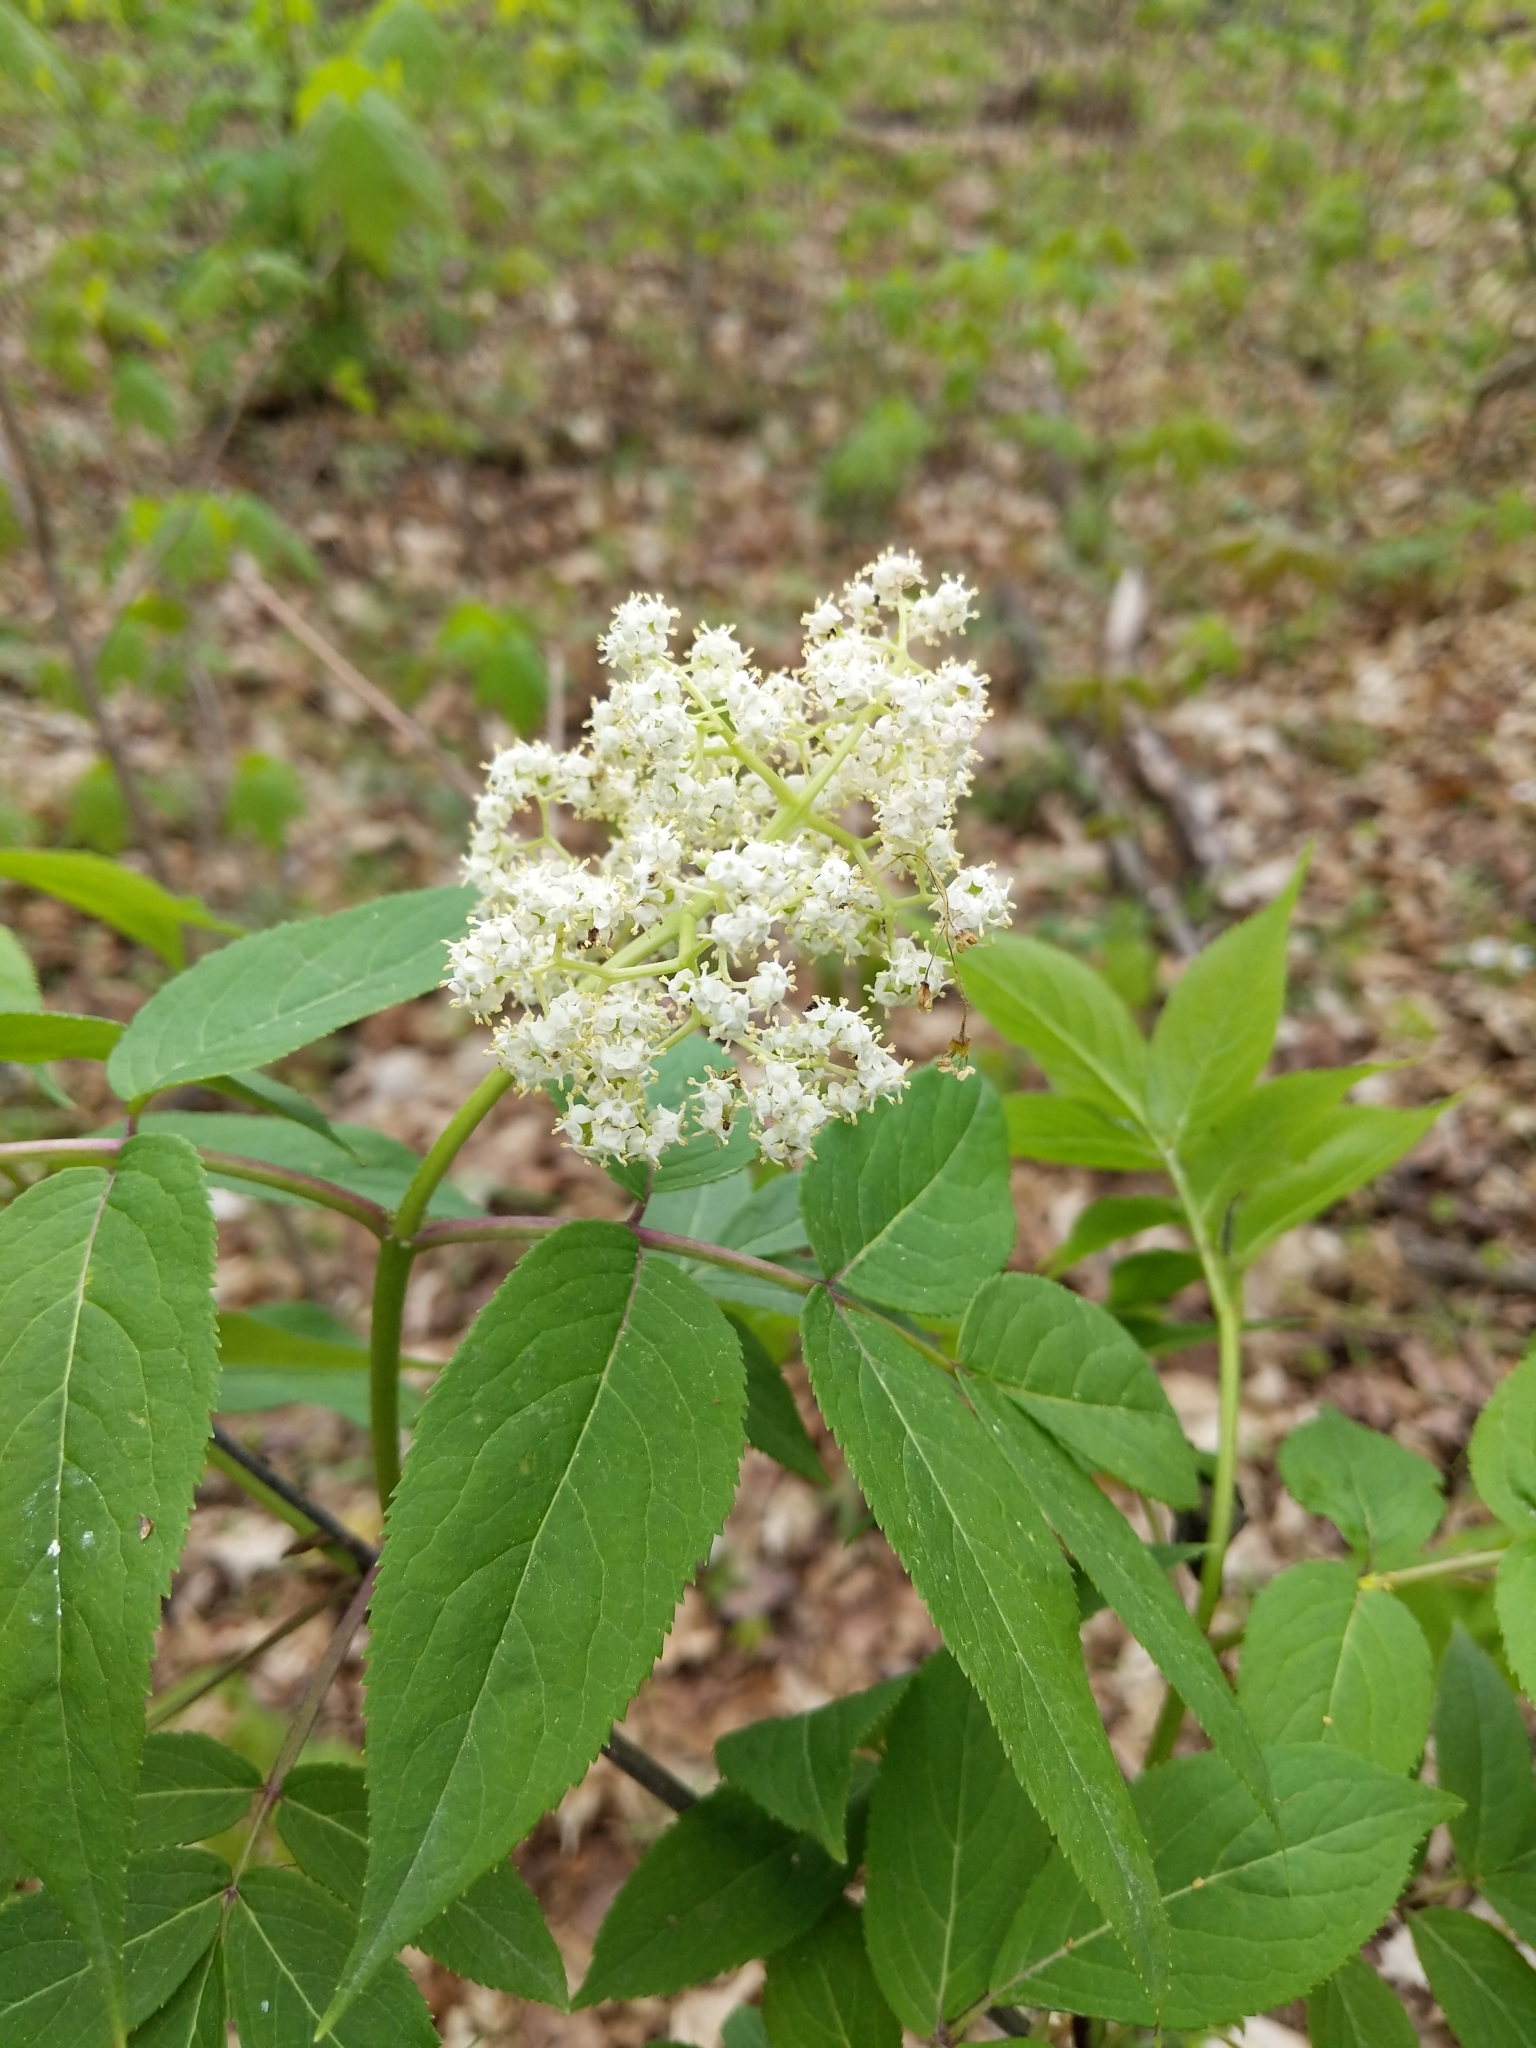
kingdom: Plantae
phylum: Tracheophyta
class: Magnoliopsida
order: Dipsacales
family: Viburnaceae
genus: Sambucus
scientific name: Sambucus racemosa
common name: Red-berried elder
